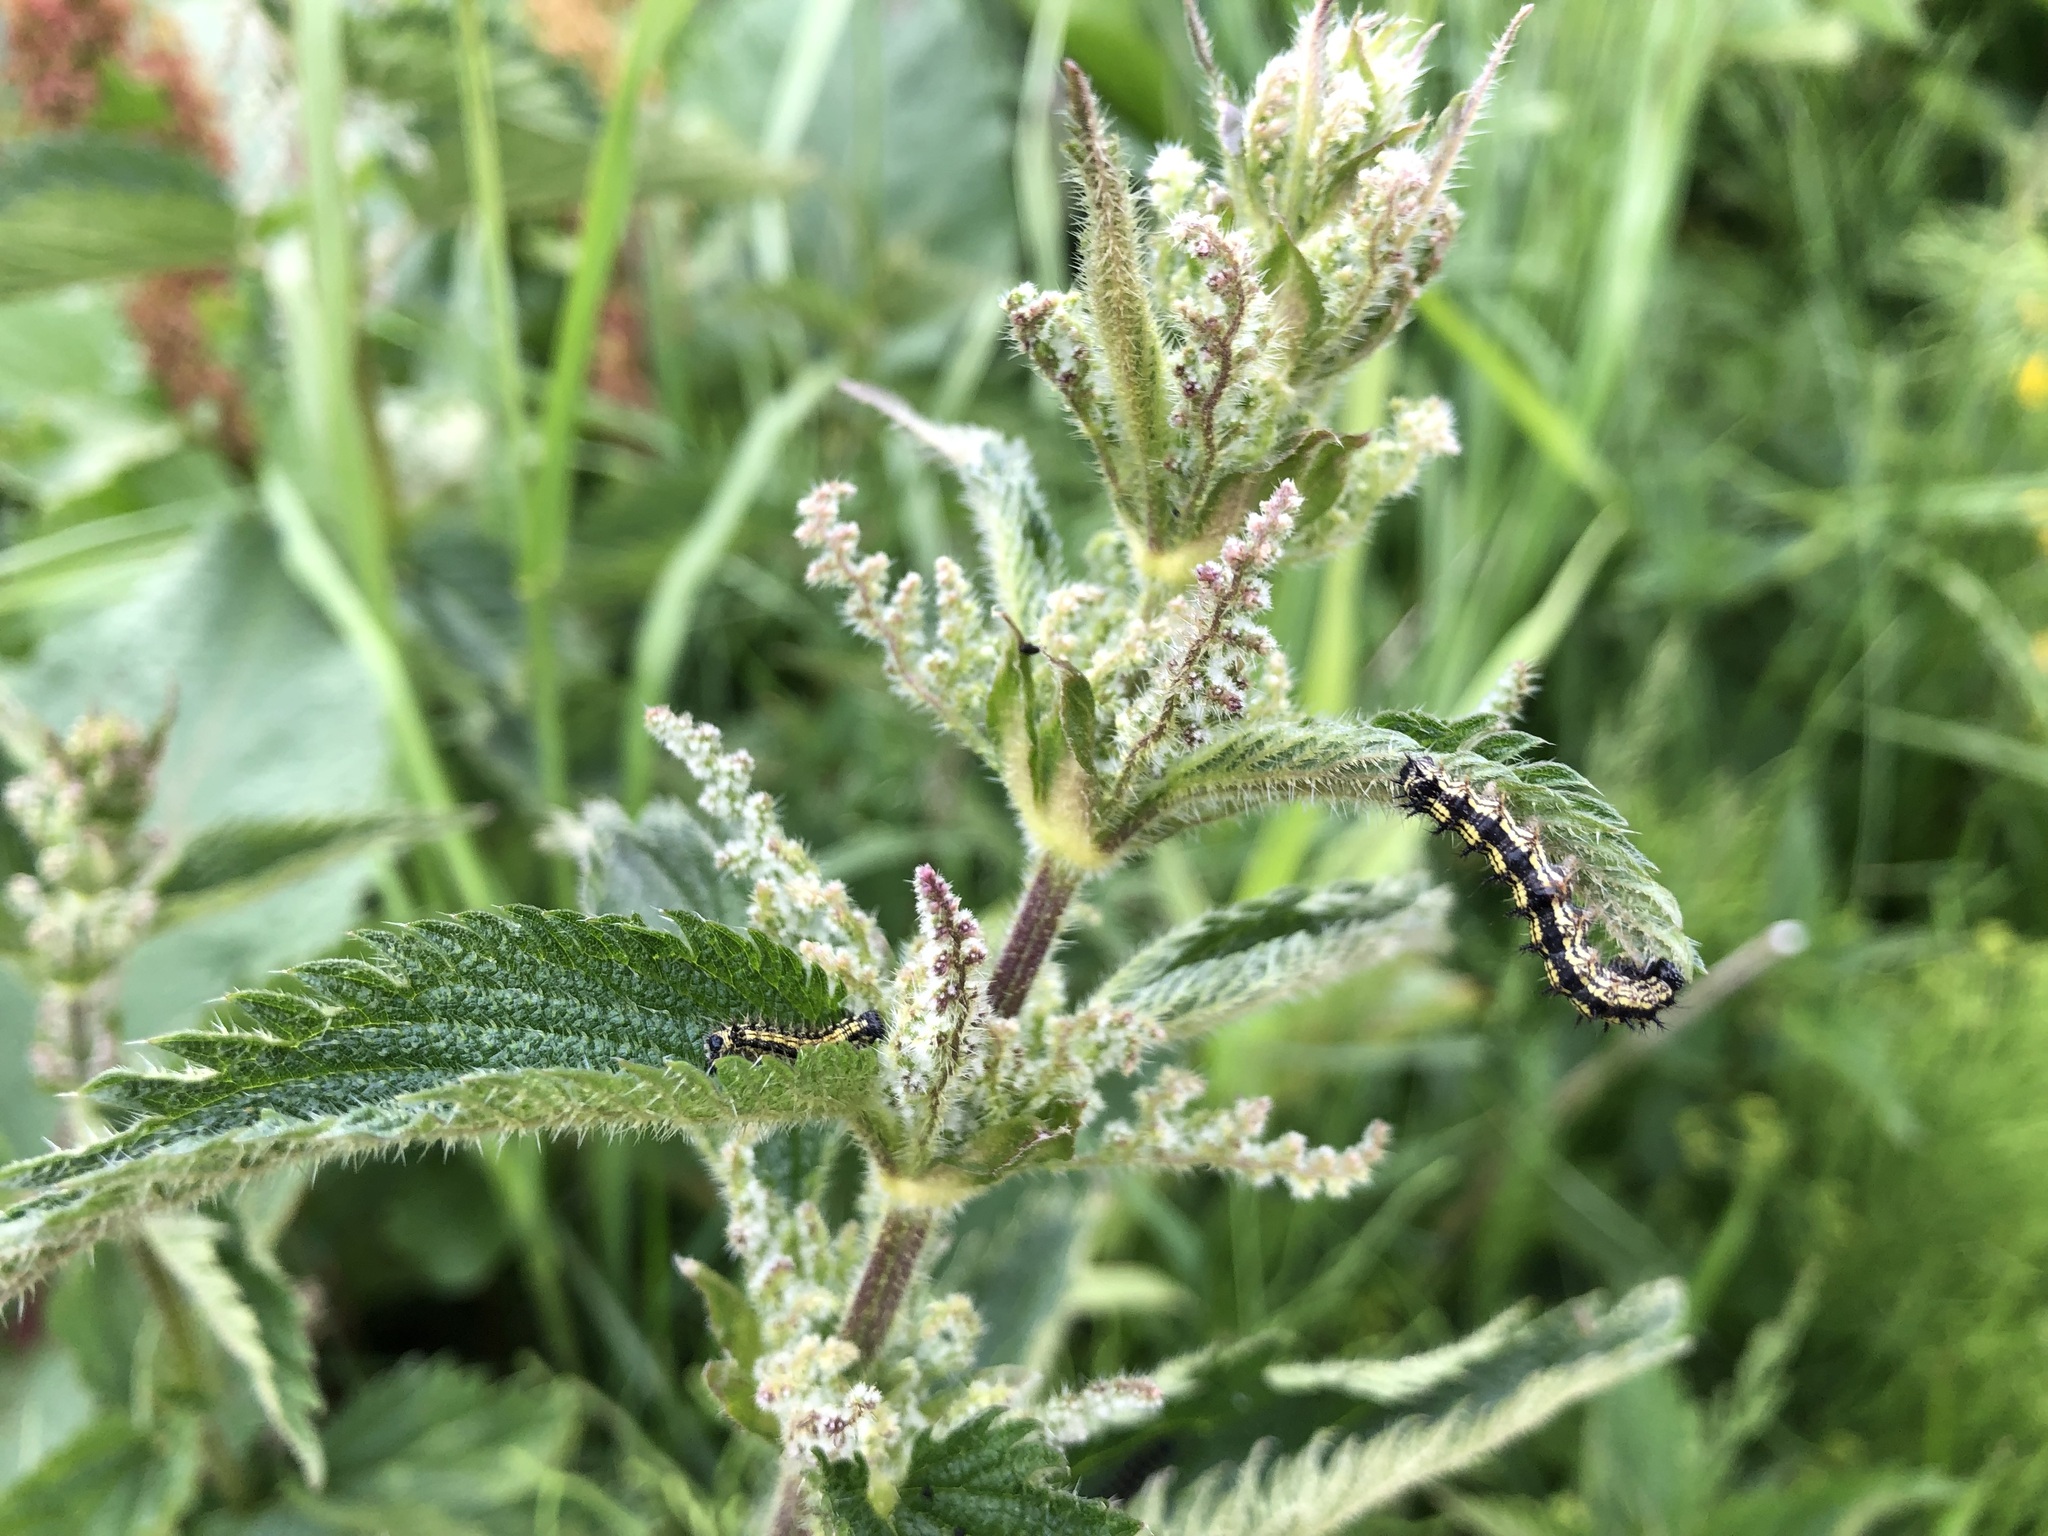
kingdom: Animalia
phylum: Arthropoda
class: Insecta
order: Lepidoptera
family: Nymphalidae
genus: Aglais
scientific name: Aglais urticae
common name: Small tortoiseshell
